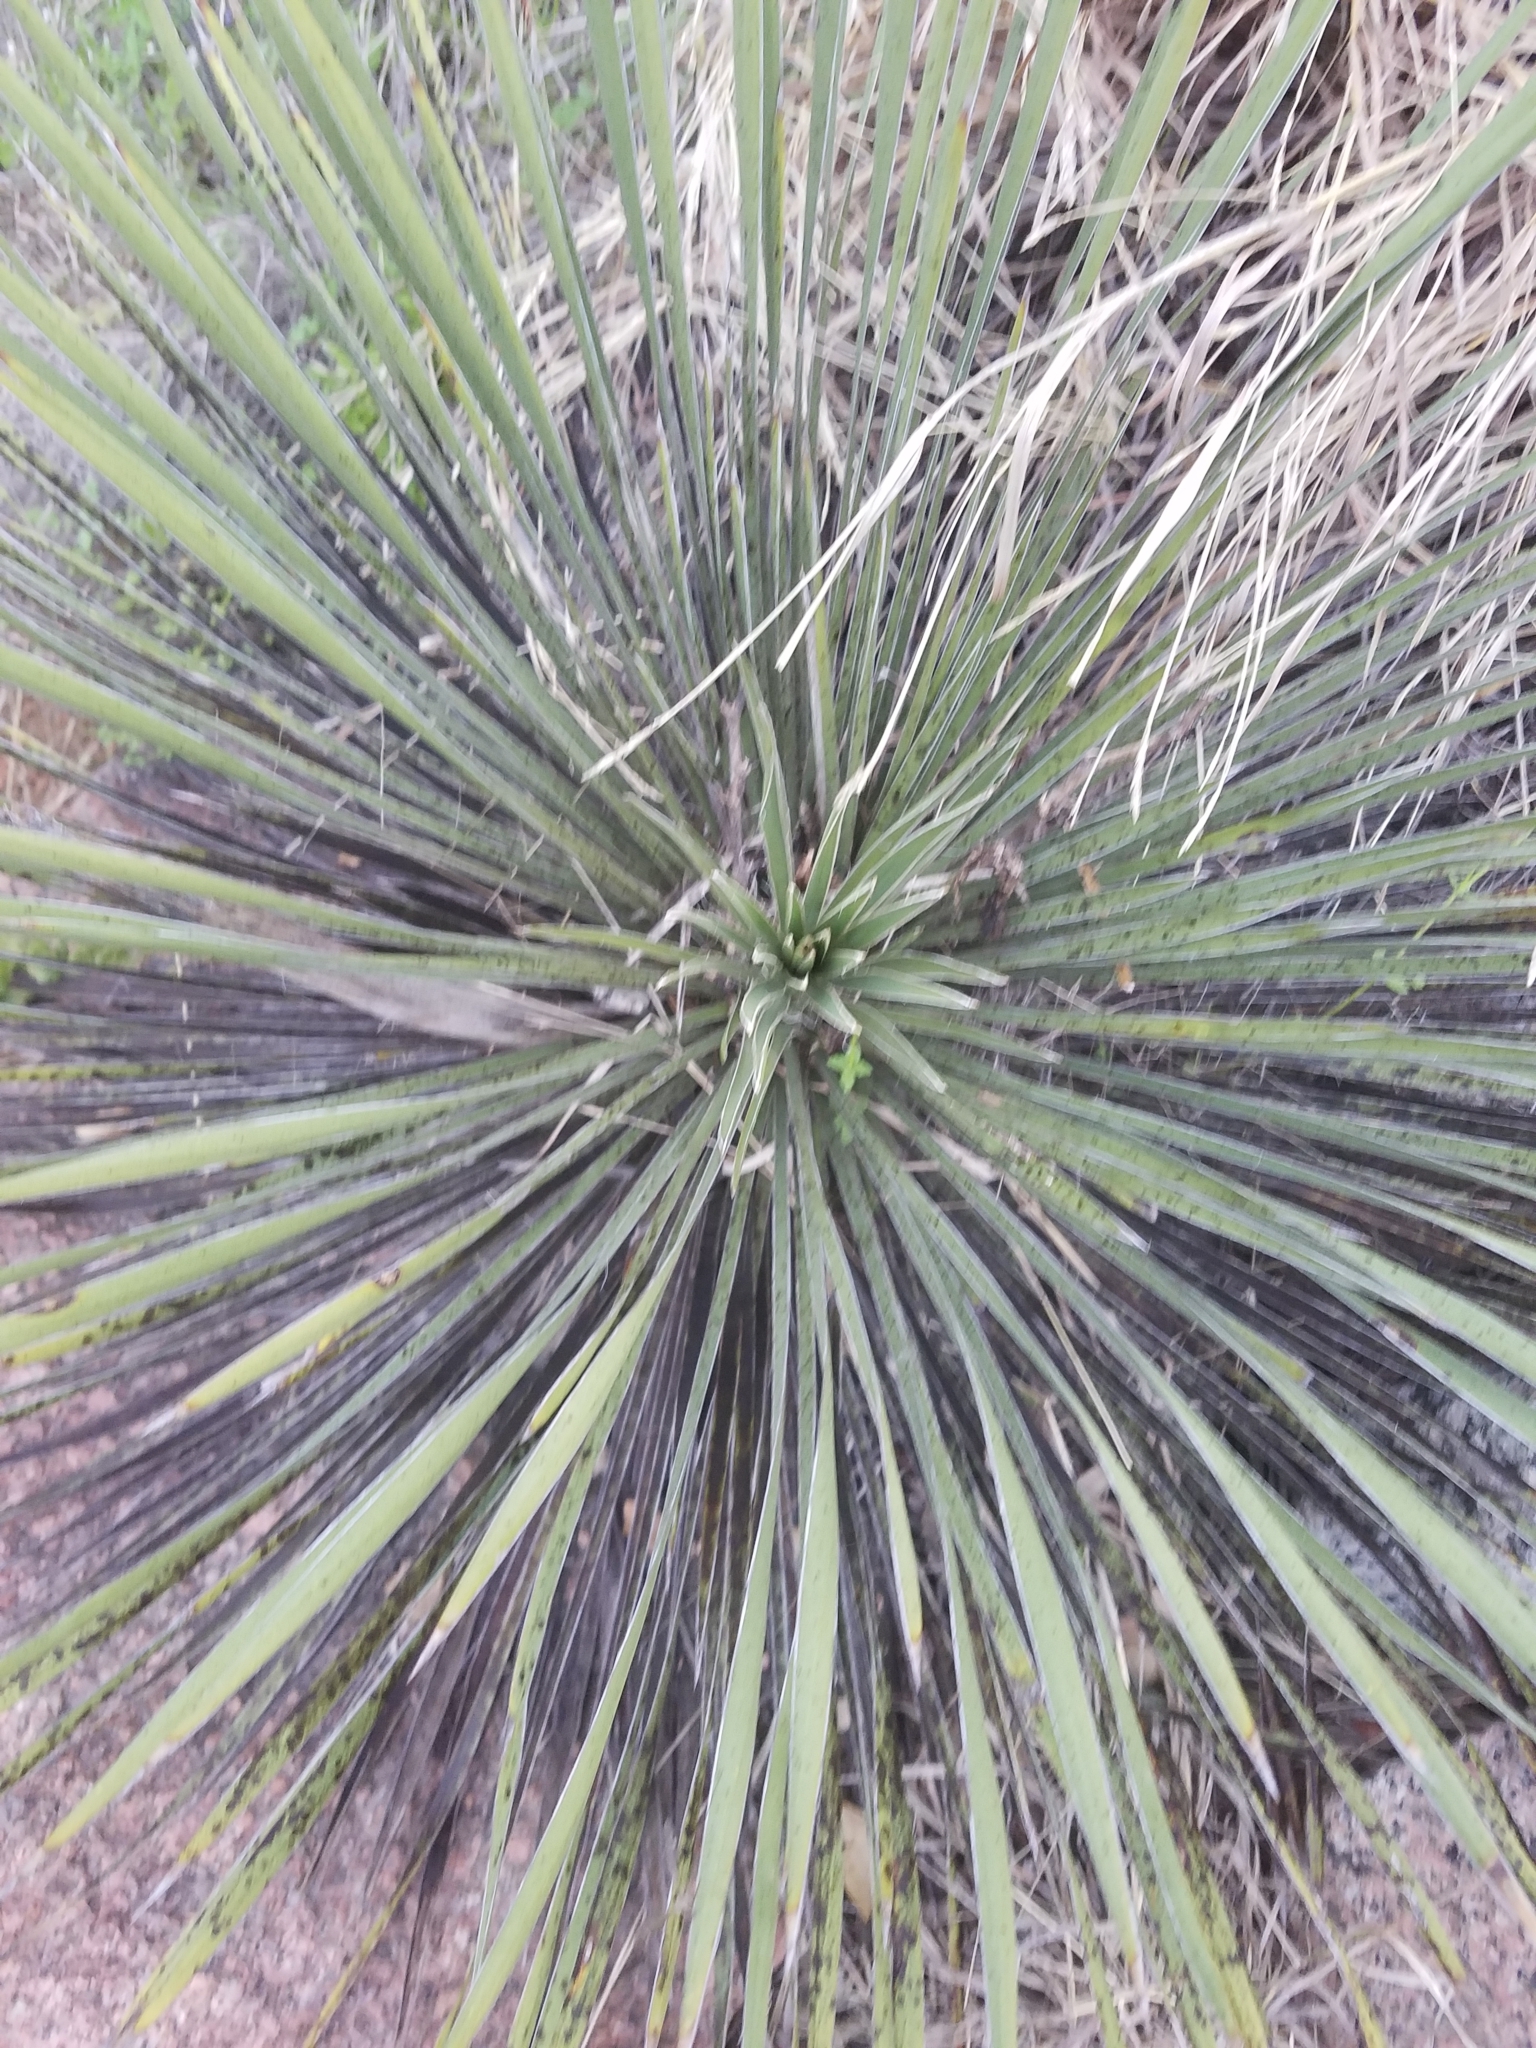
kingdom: Plantae
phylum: Tracheophyta
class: Liliopsida
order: Asparagales
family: Asparagaceae
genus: Yucca
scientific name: Yucca constricta
